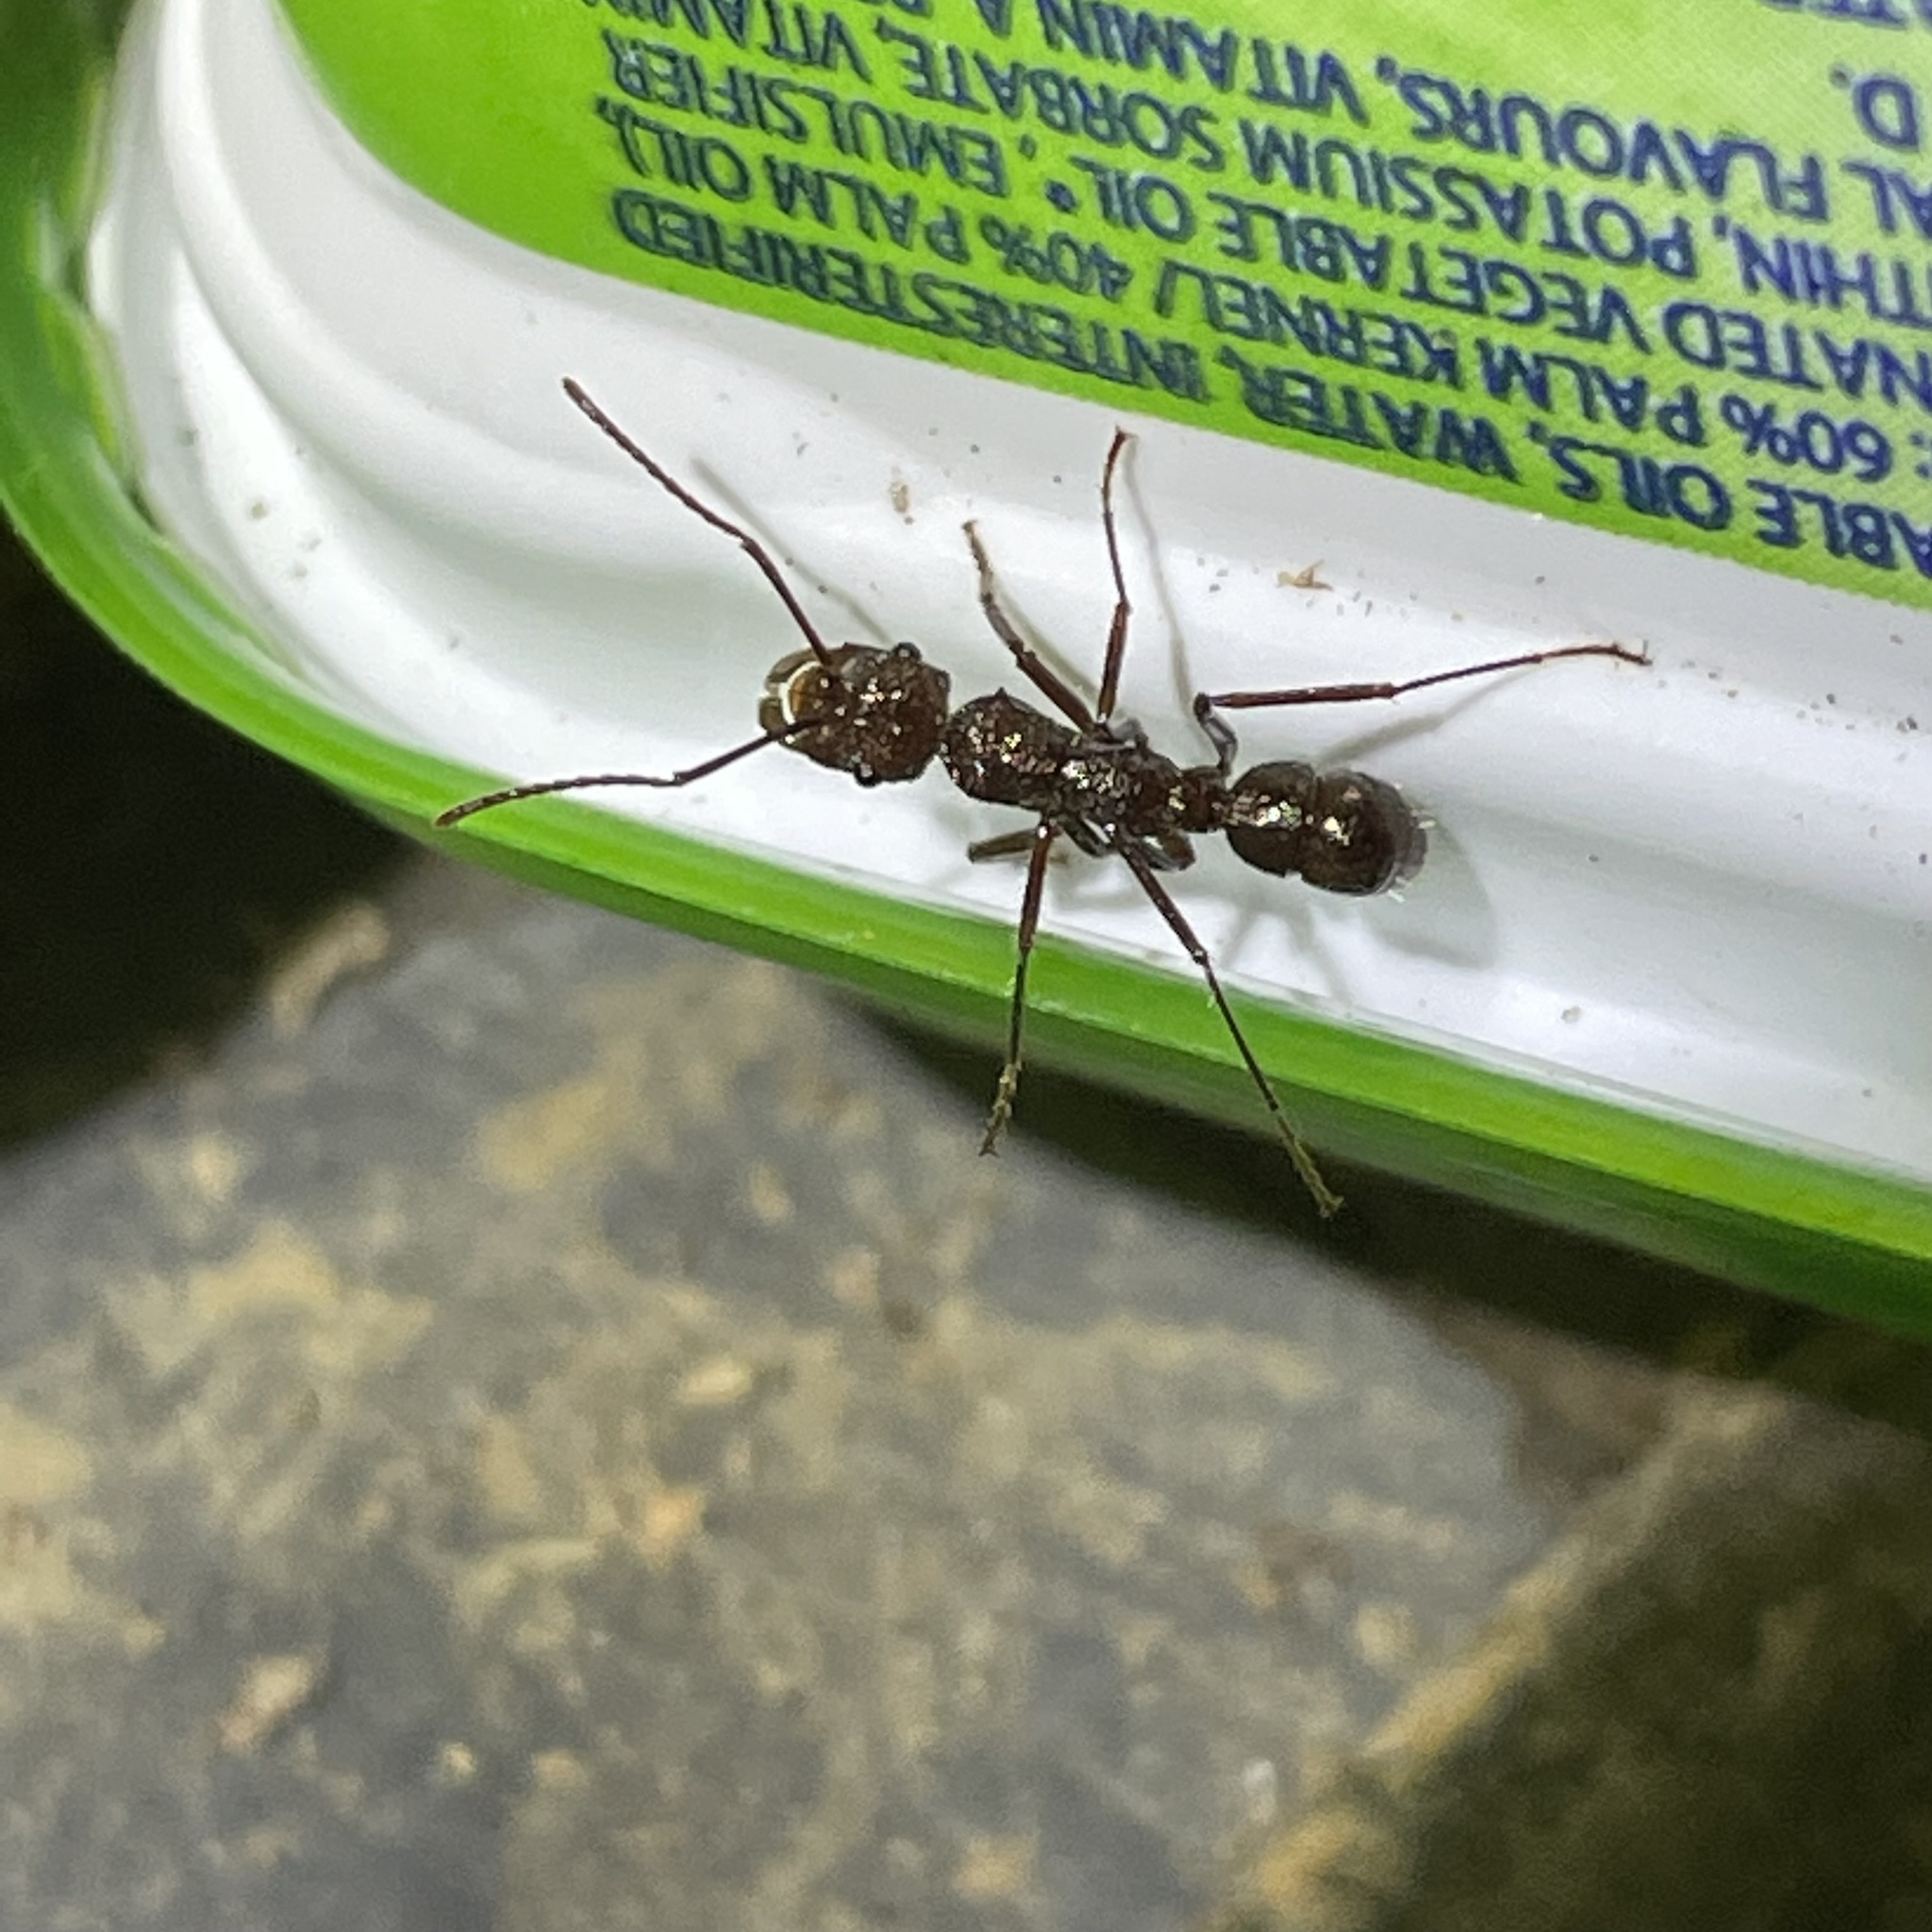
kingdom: Animalia
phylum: Arthropoda
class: Insecta
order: Hymenoptera
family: Formicidae
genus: Ectatomma
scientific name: Ectatomma tuberculatum
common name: Ant
